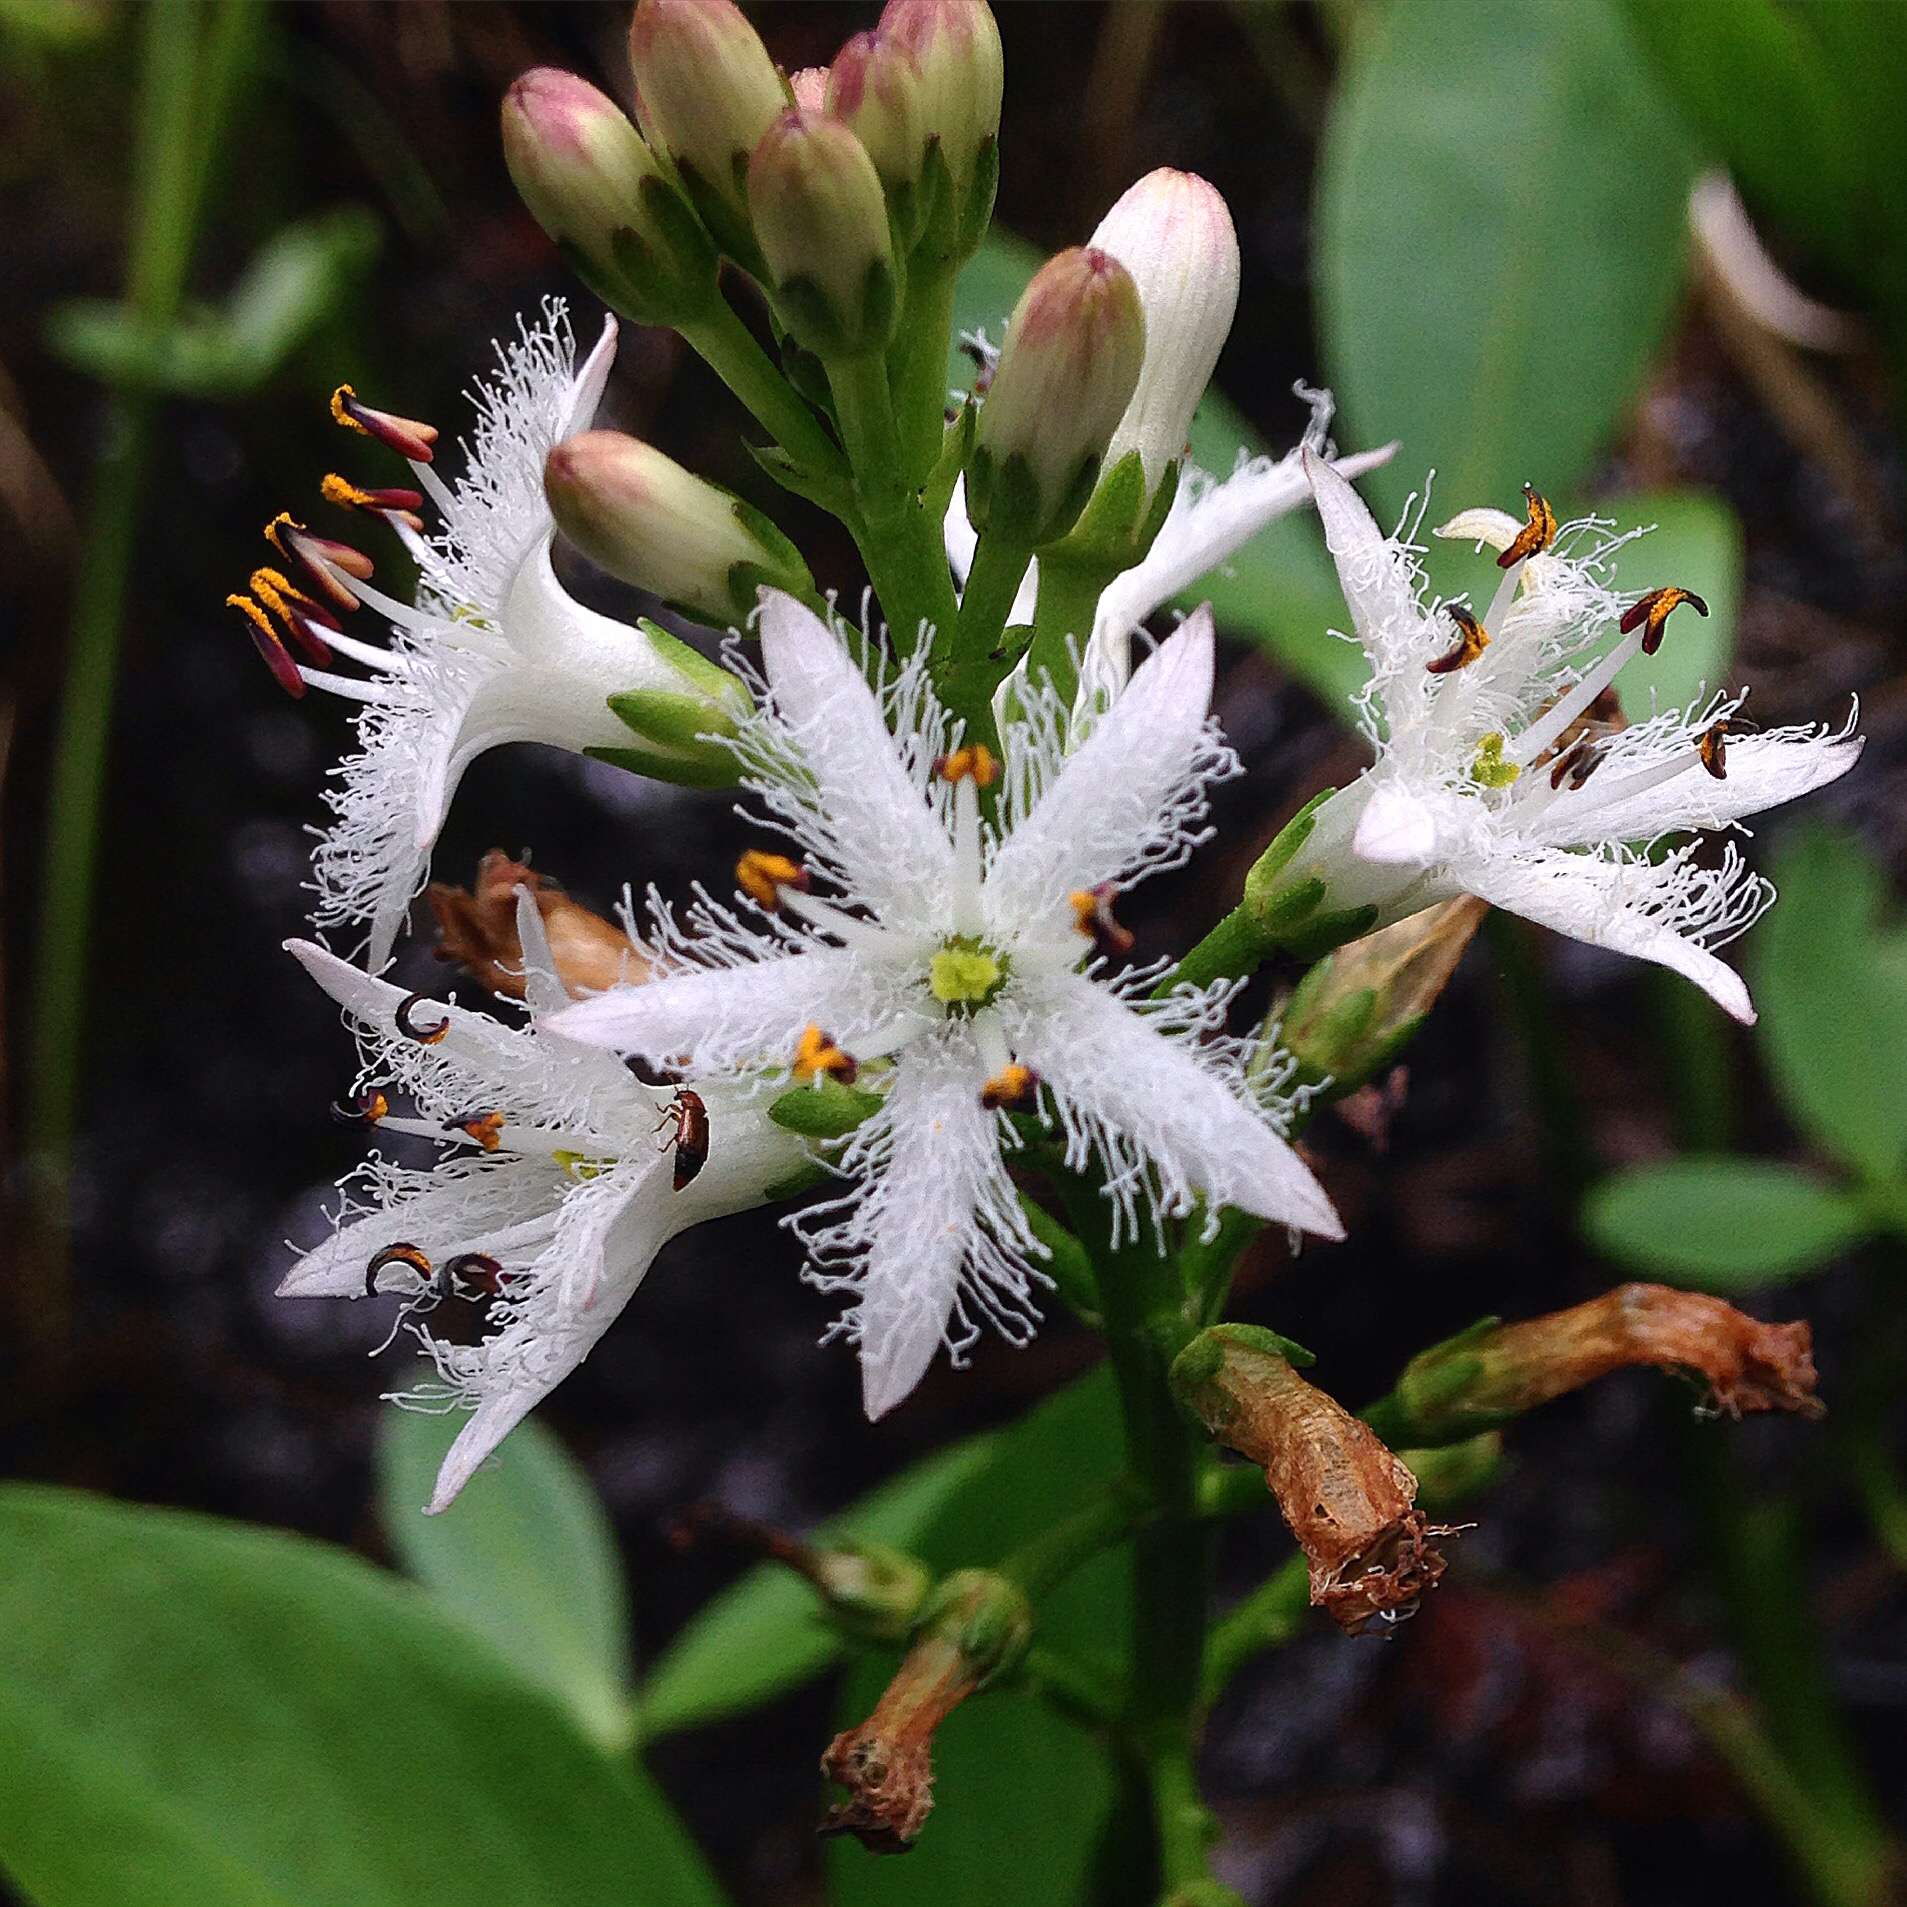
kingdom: Plantae
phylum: Tracheophyta
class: Magnoliopsida
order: Asterales
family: Menyanthaceae
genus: Menyanthes
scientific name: Menyanthes trifoliata
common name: Bogbean
